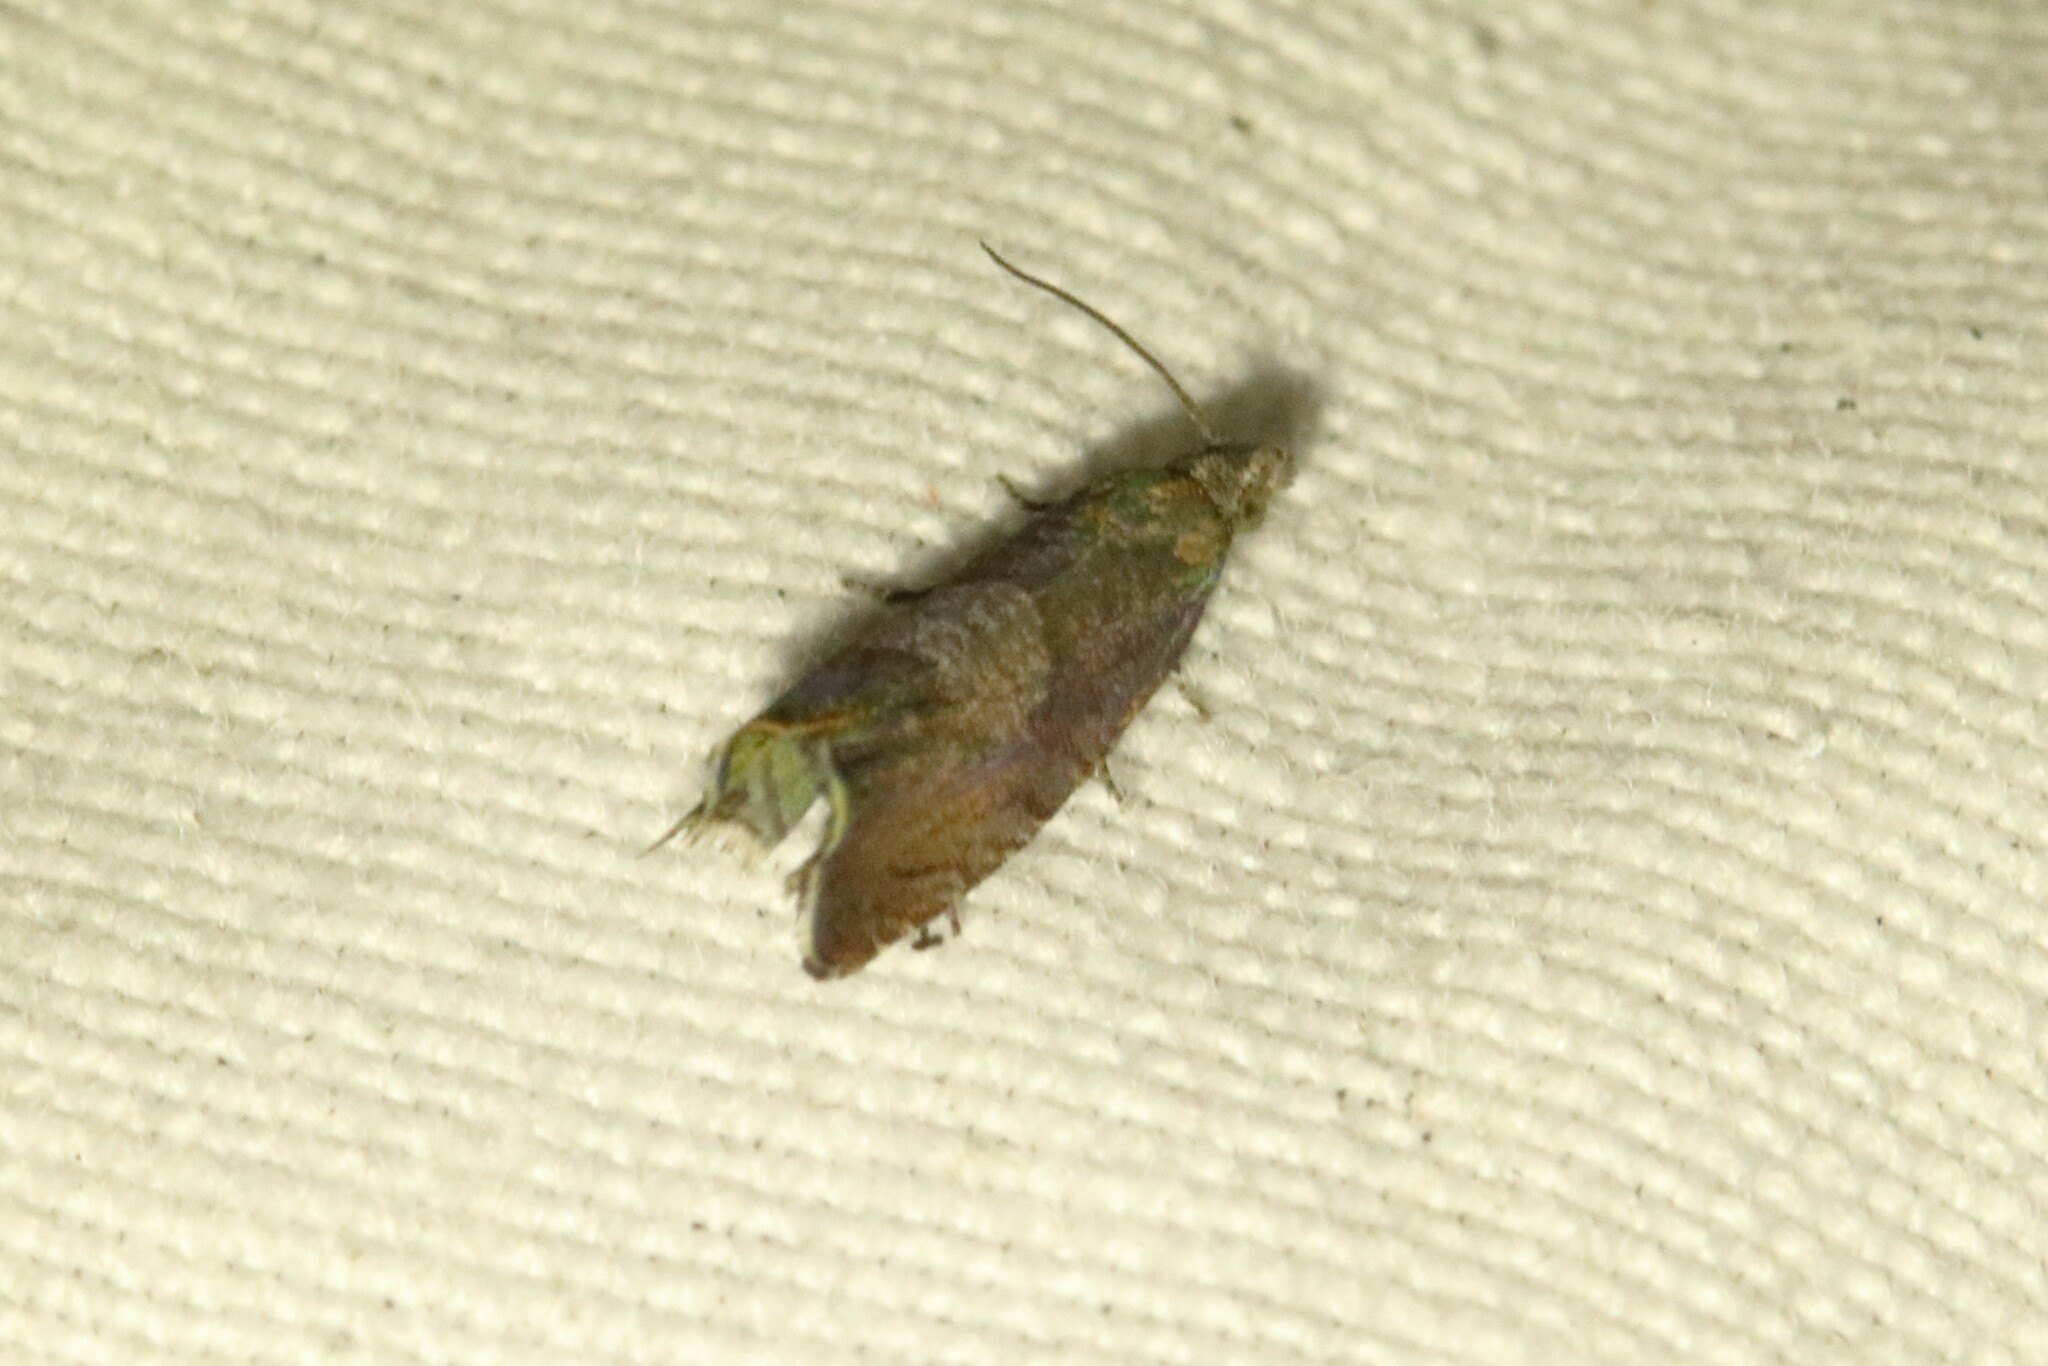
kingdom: Animalia
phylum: Arthropoda
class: Insecta
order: Lepidoptera
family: Tortricidae
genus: Dichrorampha
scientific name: Dichrorampha acuminatana
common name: Sharp-winged drill
